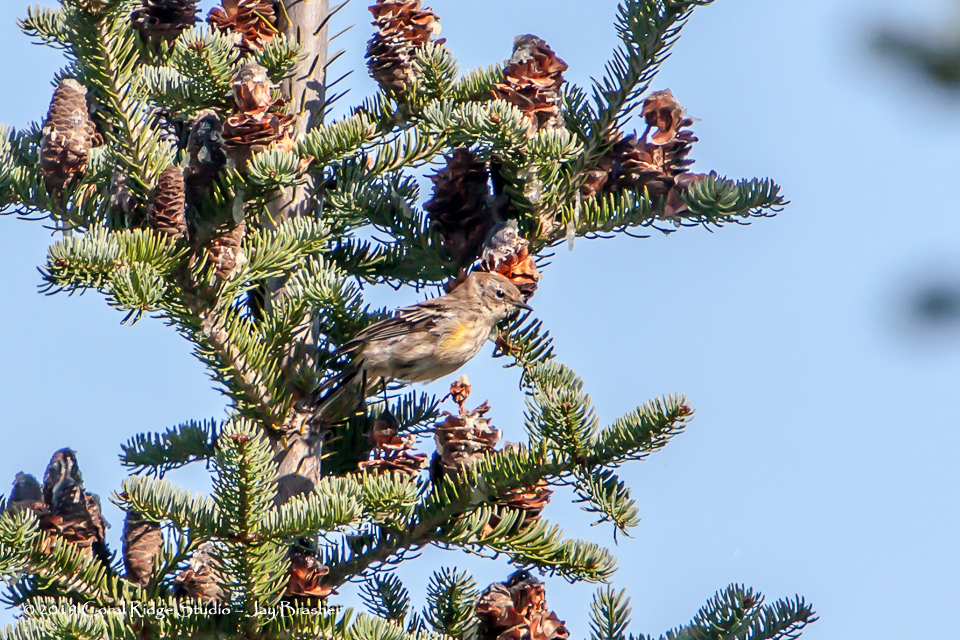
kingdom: Animalia
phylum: Chordata
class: Aves
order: Passeriformes
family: Parulidae
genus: Setophaga
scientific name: Setophaga coronata
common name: Myrtle warbler
